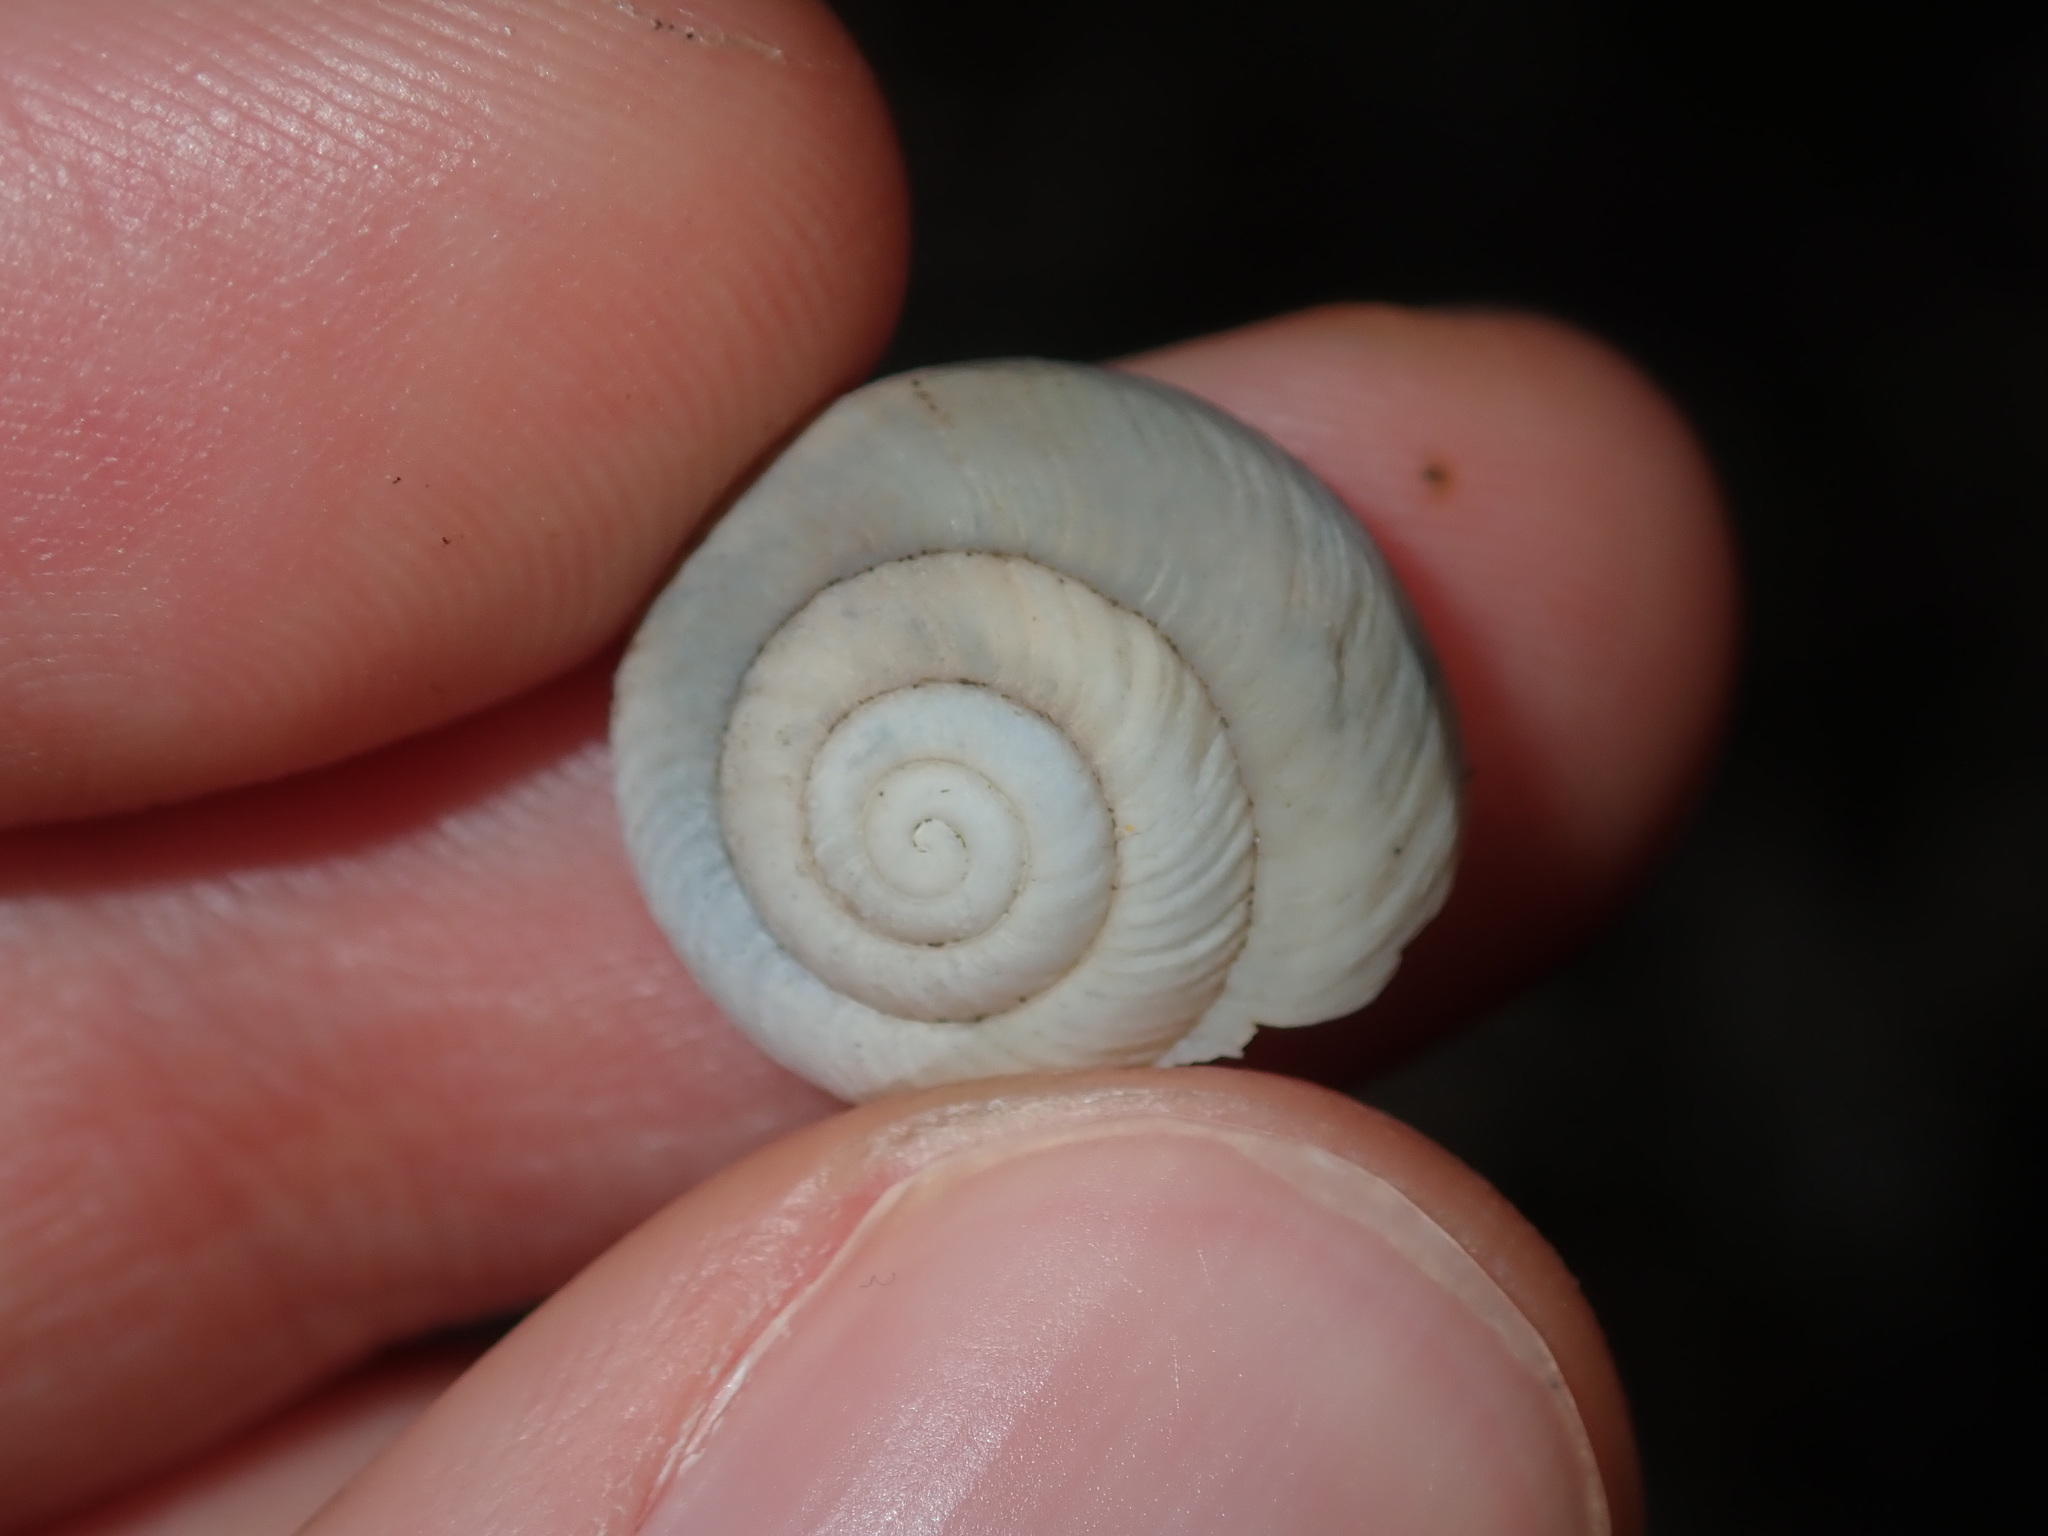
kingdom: Animalia
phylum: Mollusca
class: Gastropoda
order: Stylommatophora
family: Camaenidae
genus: Sauroconcha
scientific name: Sauroconcha sheai
